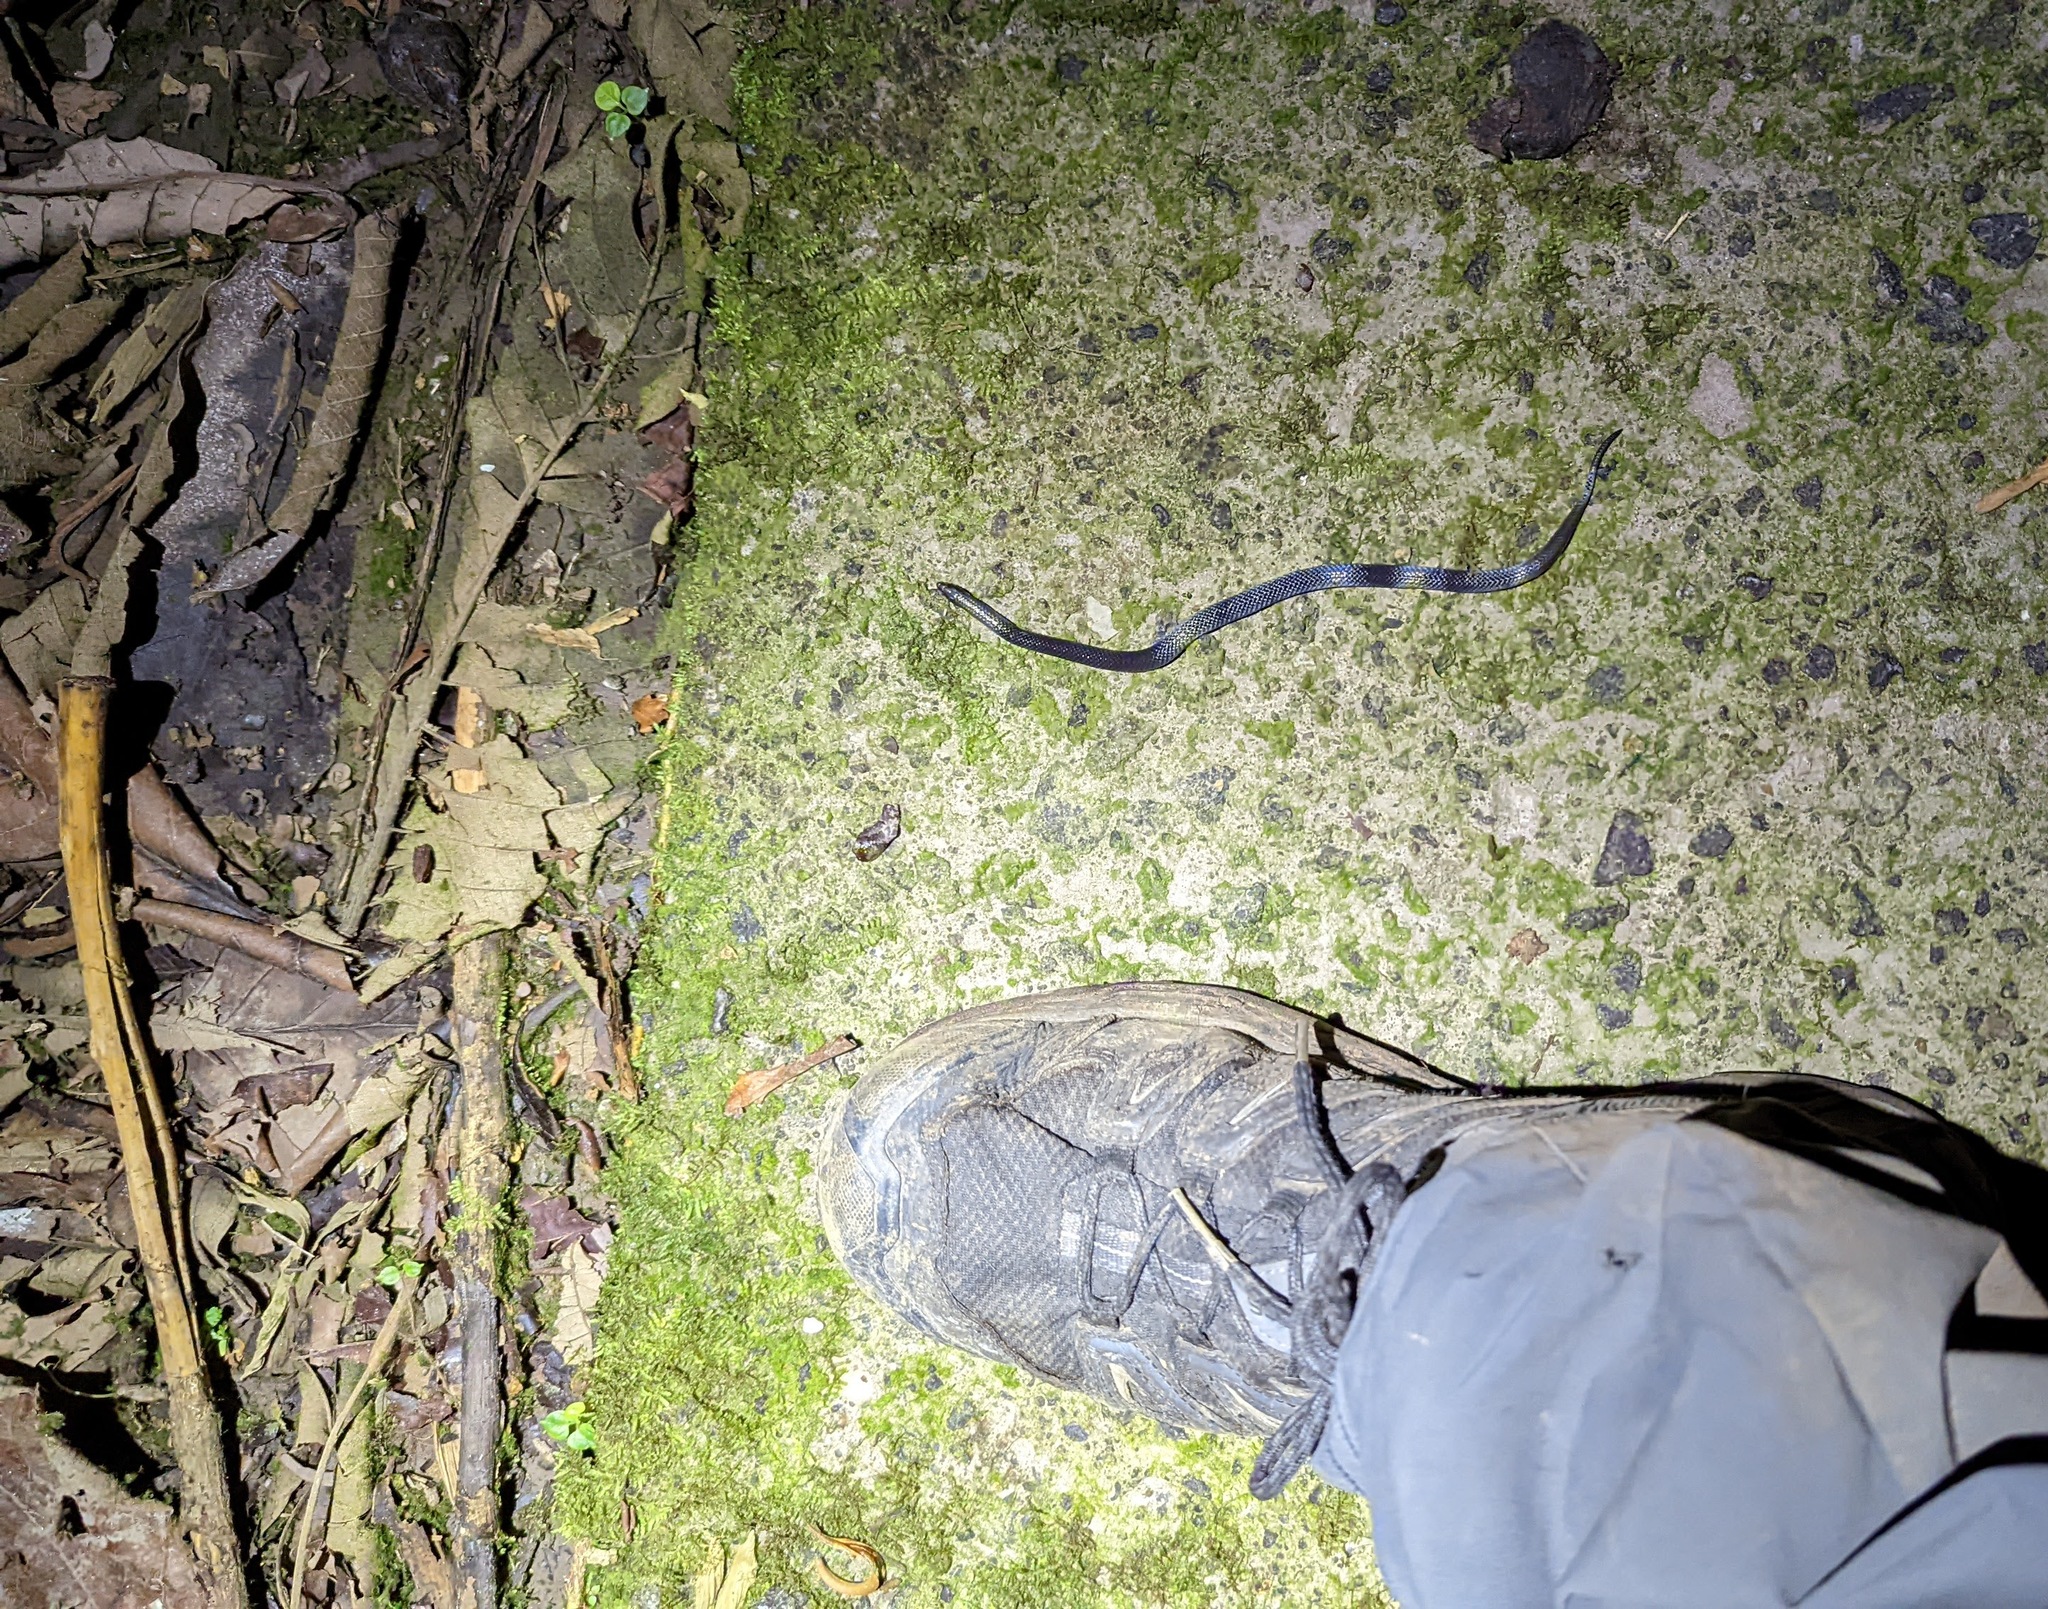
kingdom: Animalia
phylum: Chordata
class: Squamata
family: Colubridae
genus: Geophis
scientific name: Geophis hoffmanni
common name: Hoffmann's earth snake
